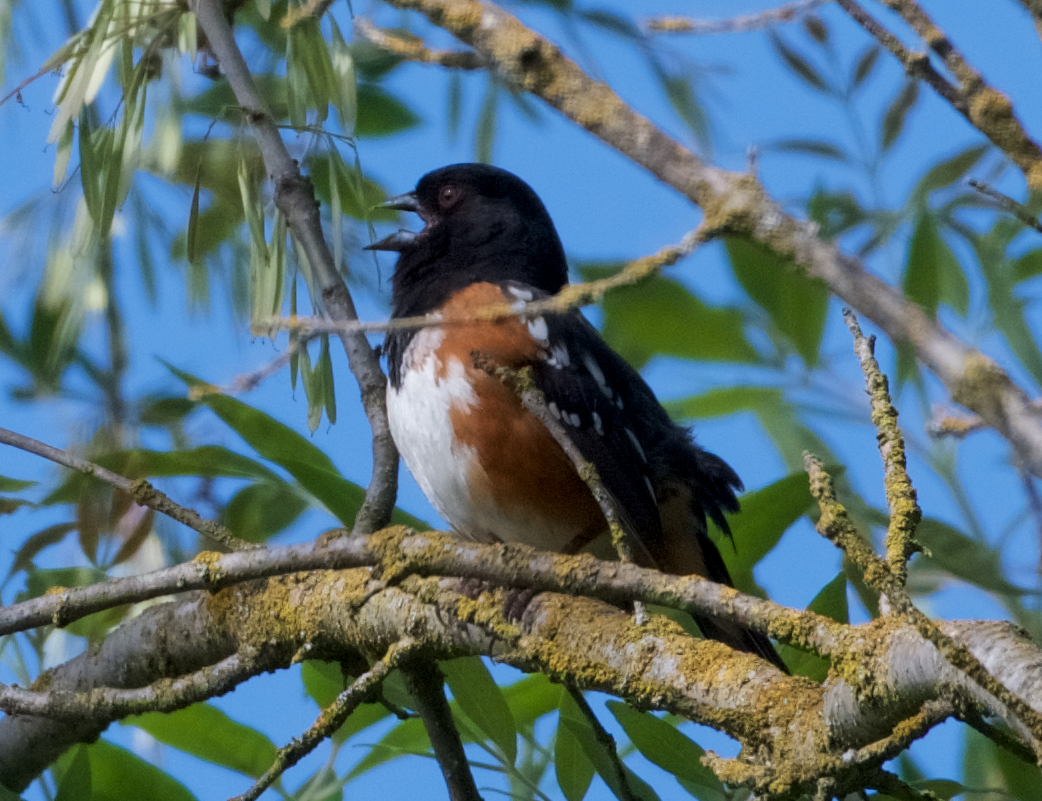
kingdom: Animalia
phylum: Chordata
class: Aves
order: Passeriformes
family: Passerellidae
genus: Pipilo
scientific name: Pipilo maculatus
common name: Spotted towhee
